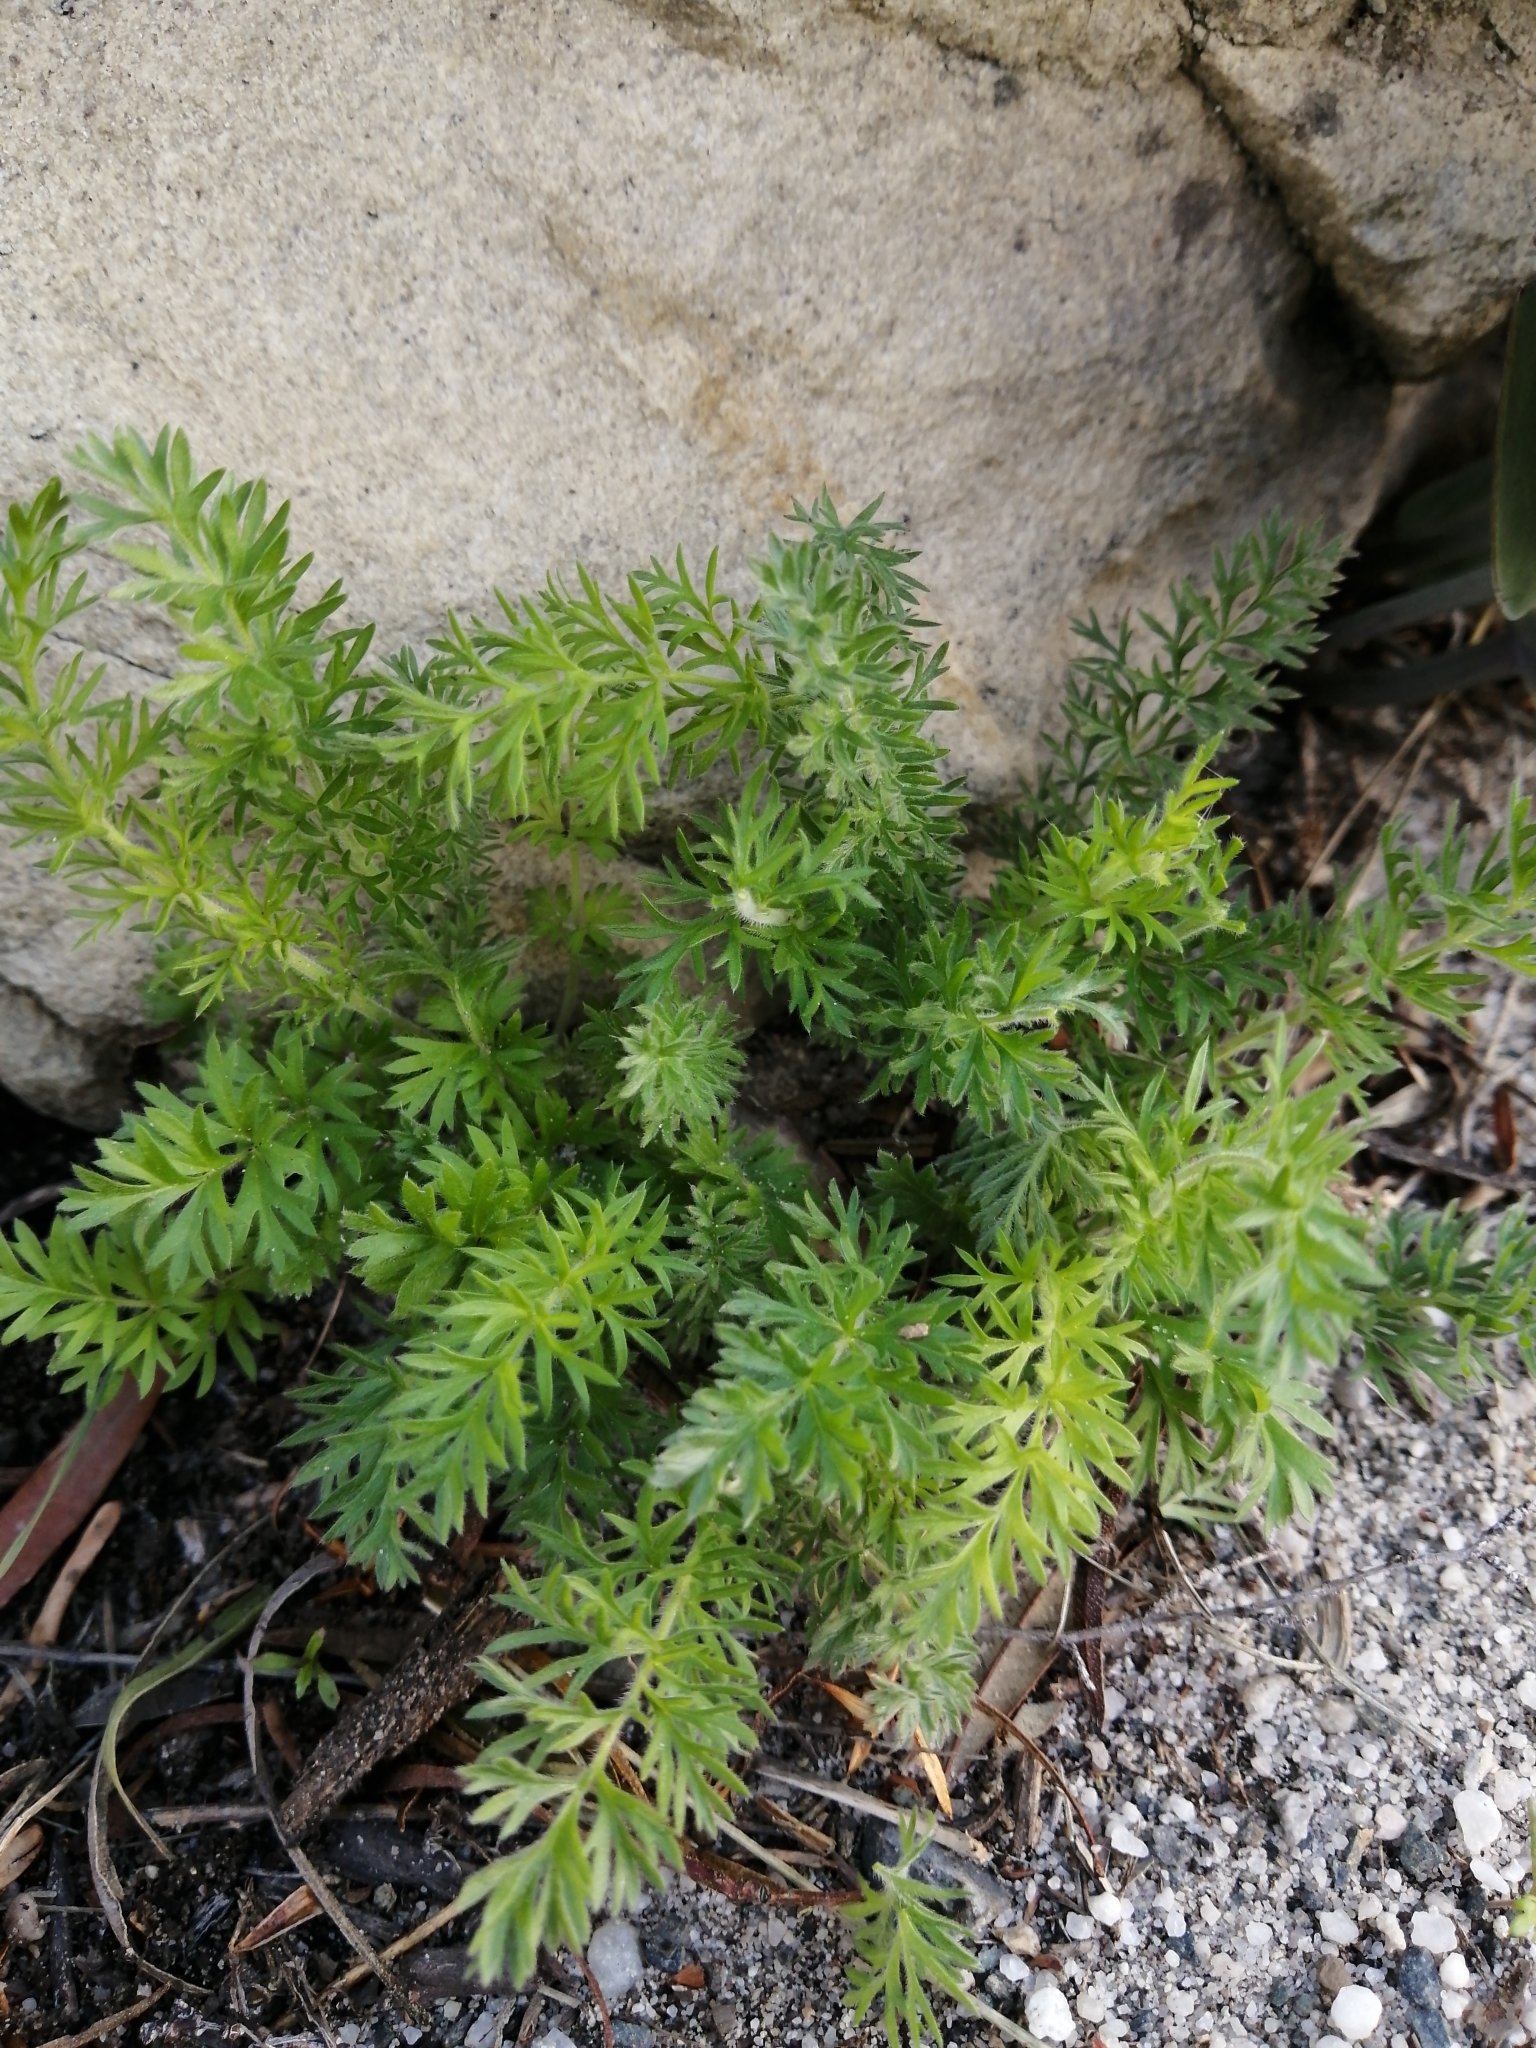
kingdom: Plantae
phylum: Tracheophyta
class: Magnoliopsida
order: Geraniales
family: Geraniaceae
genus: Pelargonium
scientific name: Pelargonium rapaceum
